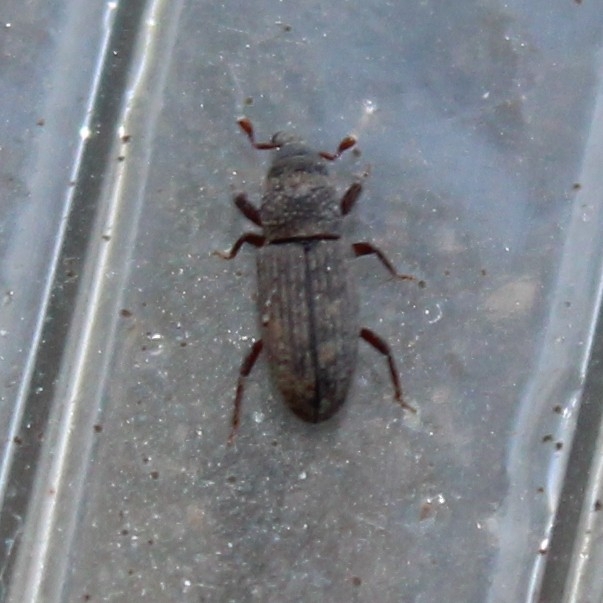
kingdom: Animalia
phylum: Arthropoda
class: Insecta
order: Coleoptera
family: Dryophthoridae
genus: Dryophthorus
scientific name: Dryophthorus americanus
